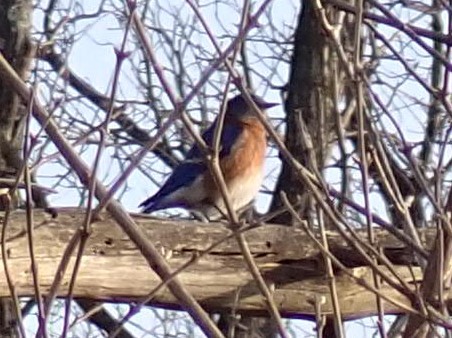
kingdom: Animalia
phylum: Chordata
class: Aves
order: Passeriformes
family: Turdidae
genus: Sialia
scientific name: Sialia sialis
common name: Eastern bluebird
